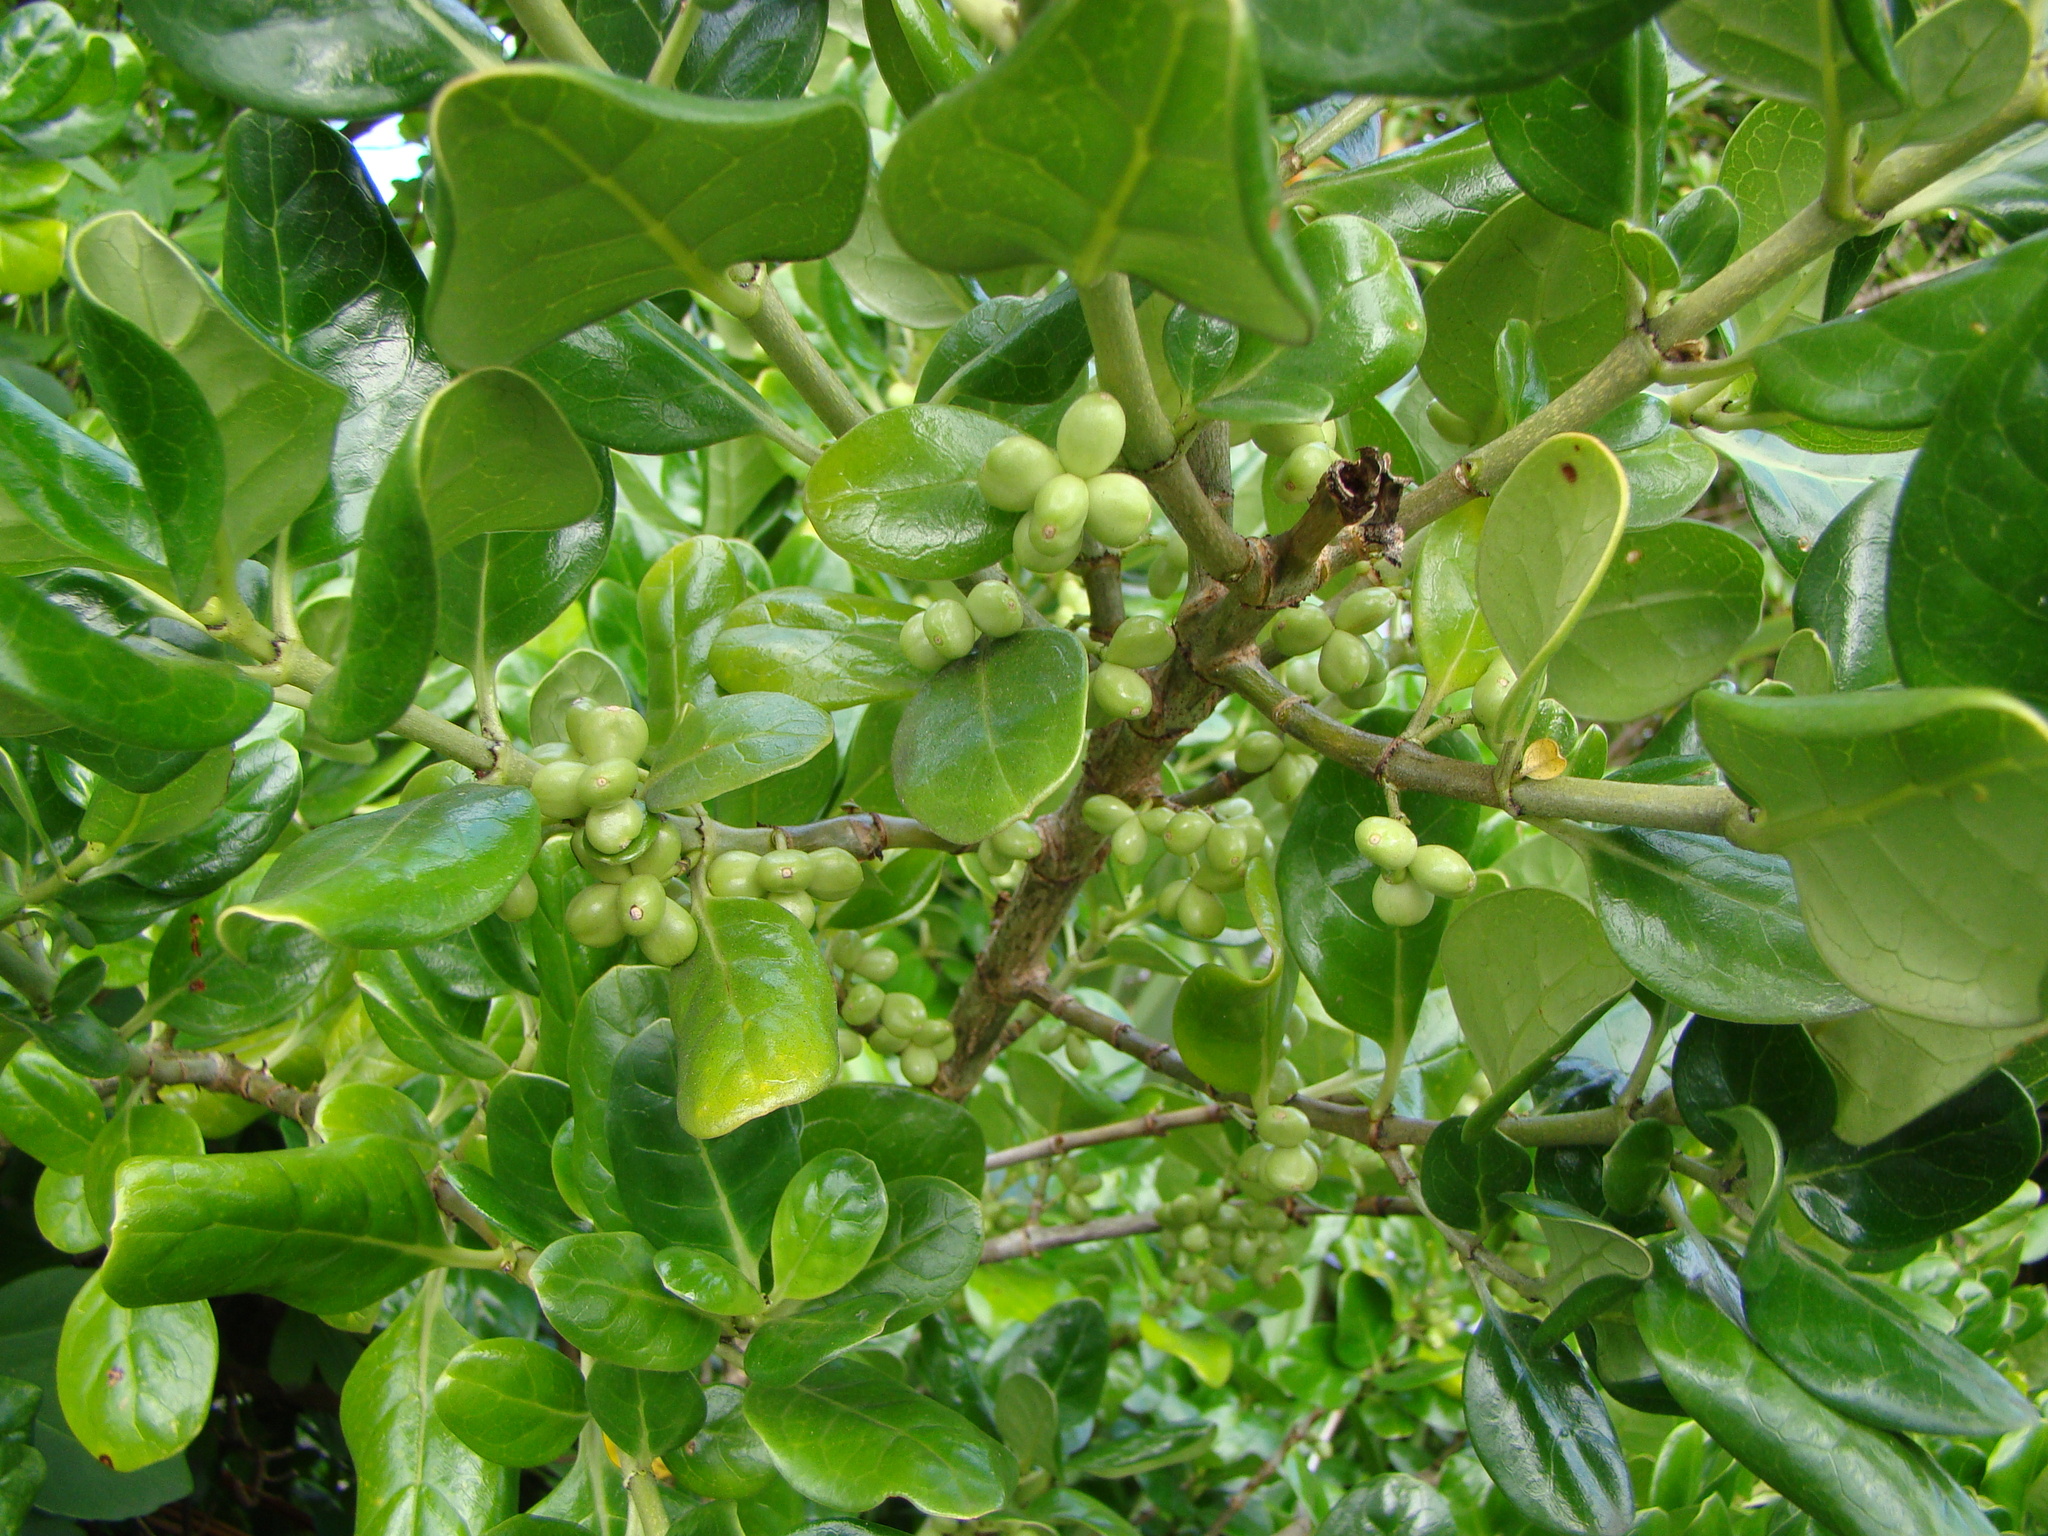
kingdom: Plantae
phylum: Tracheophyta
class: Magnoliopsida
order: Gentianales
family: Rubiaceae
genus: Coprosma
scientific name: Coprosma repens
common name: Tree bedstraw
